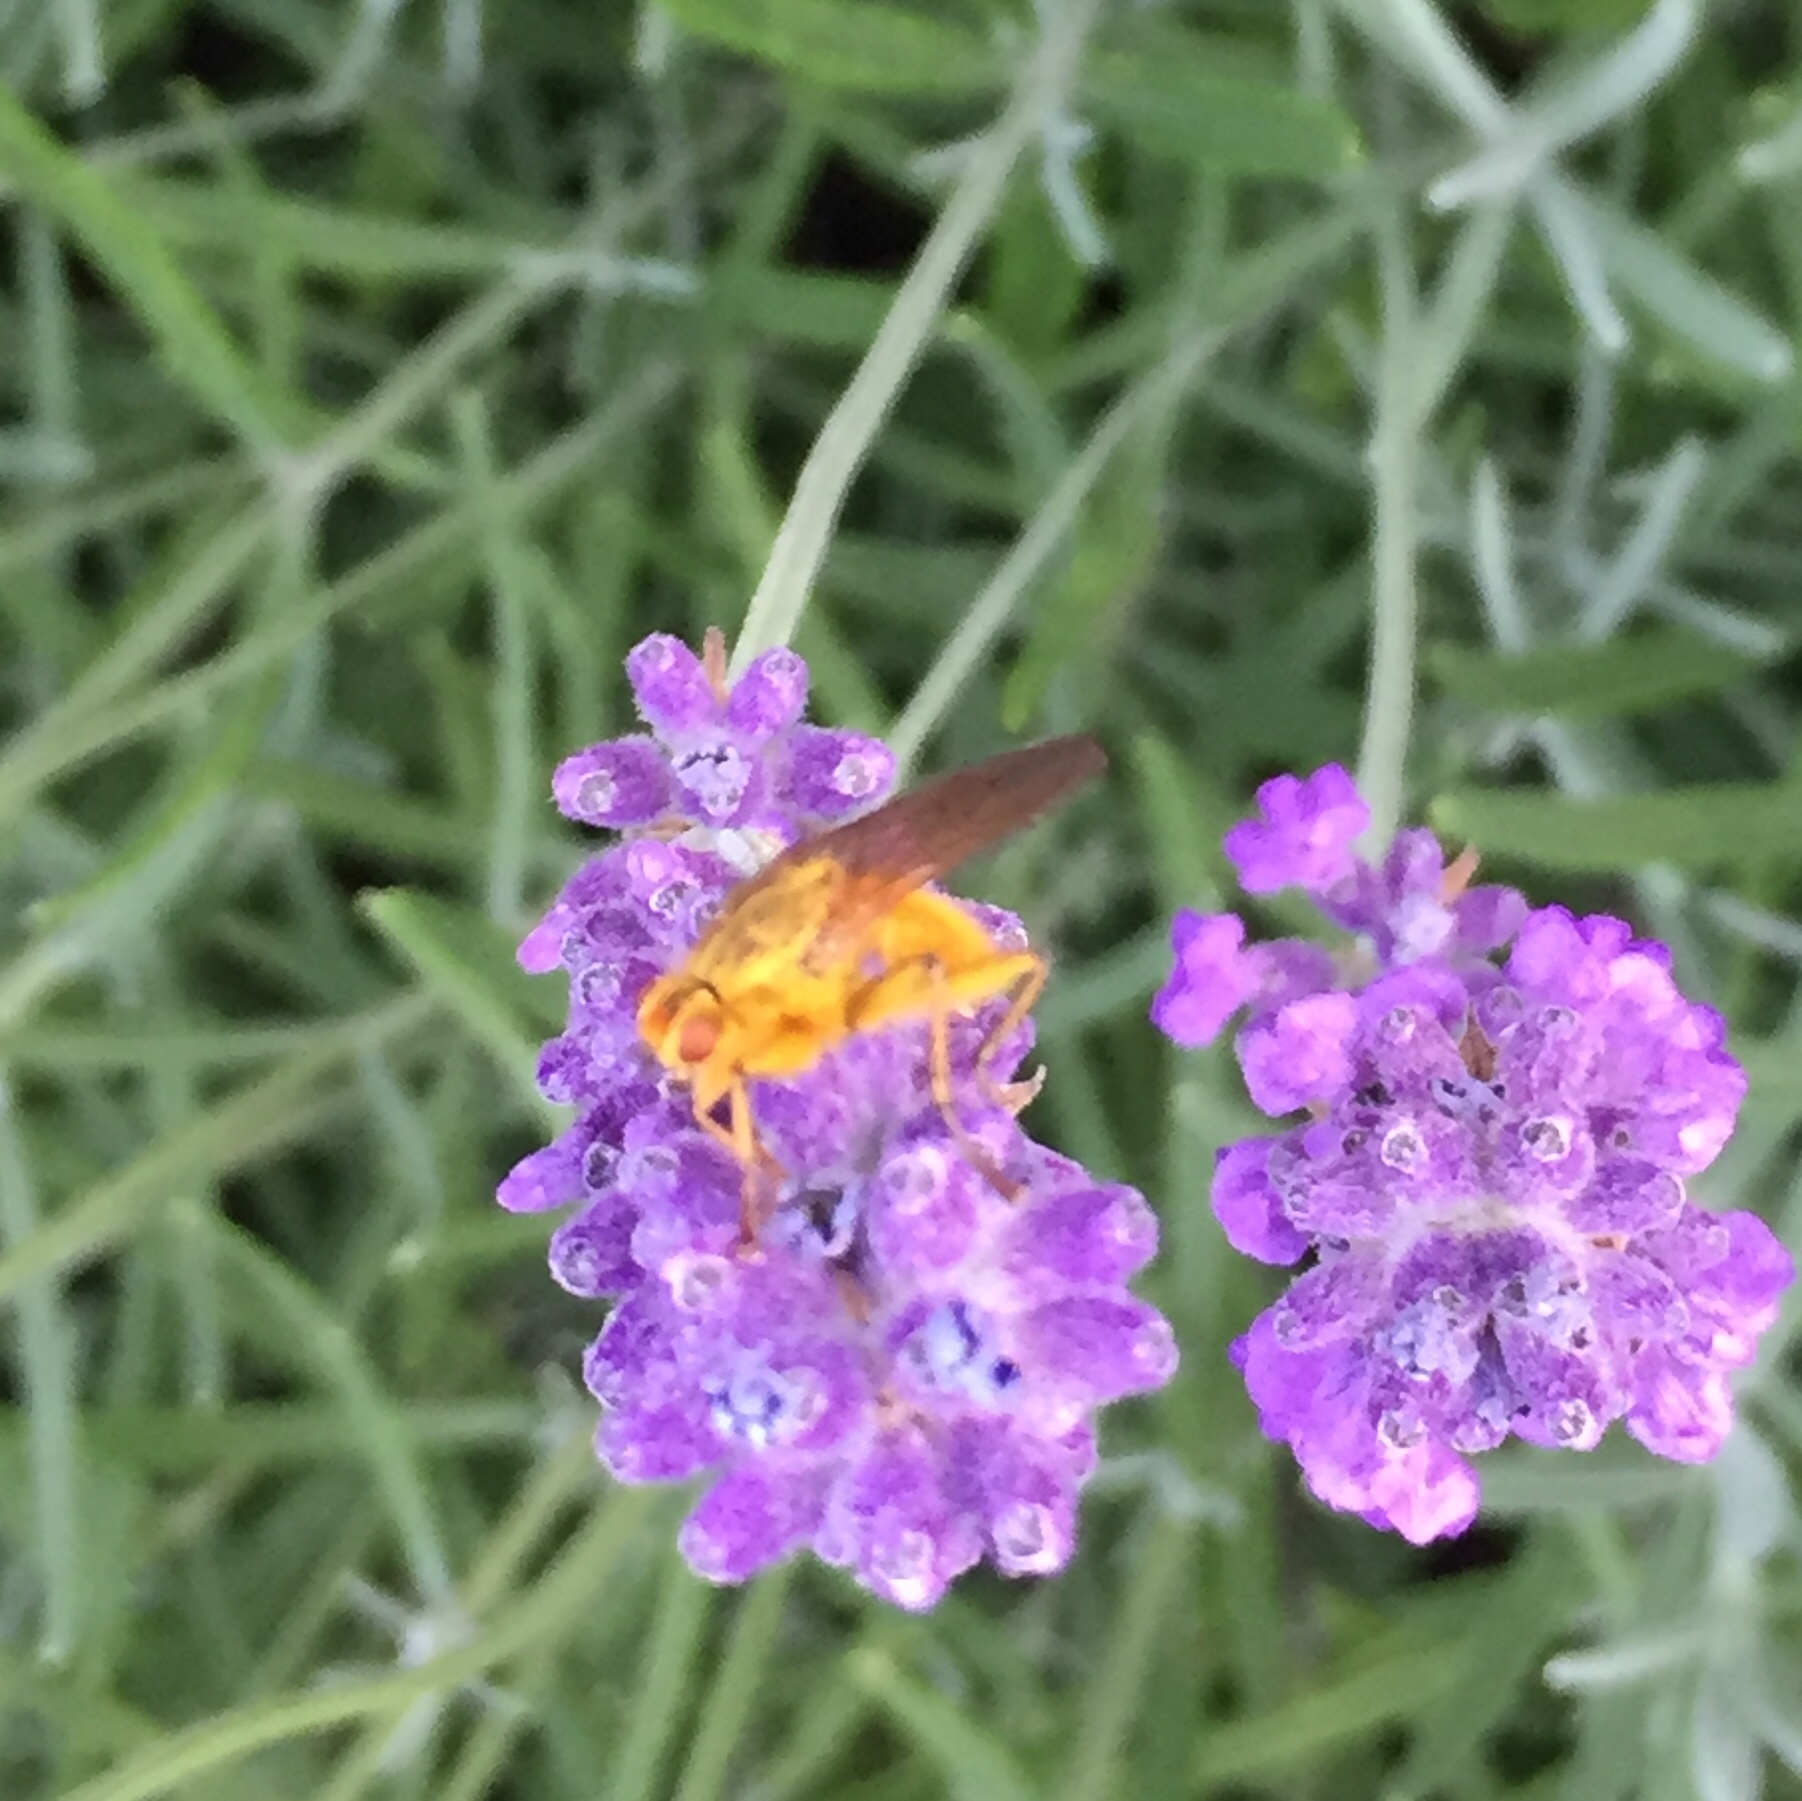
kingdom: Animalia
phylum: Arthropoda
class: Insecta
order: Diptera
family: Scathophagidae
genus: Scathophaga
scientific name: Scathophaga stercoraria
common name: Yellow dung fly
